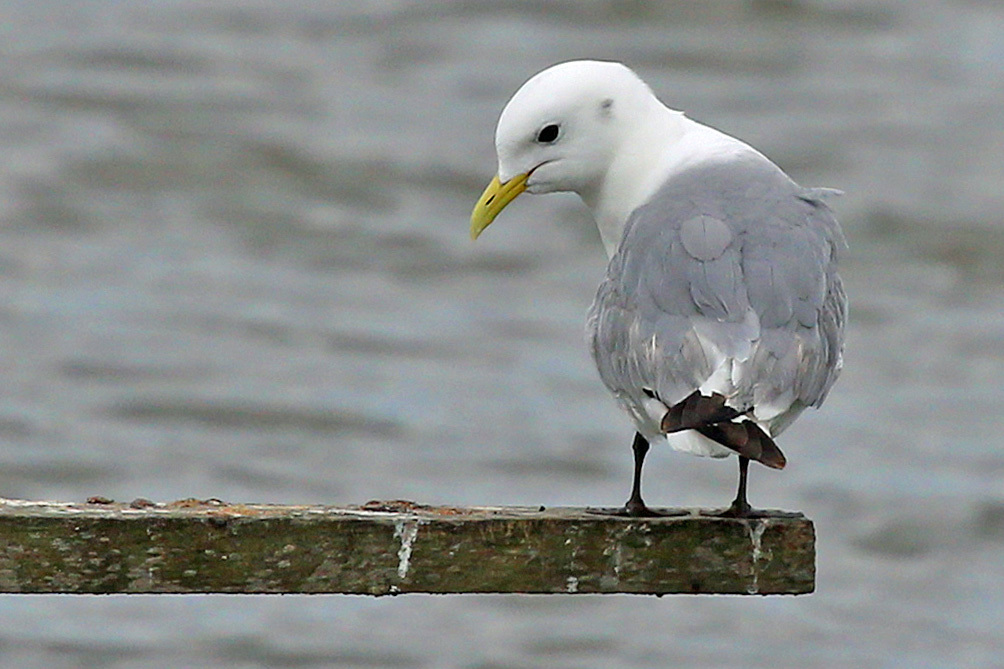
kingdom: Animalia
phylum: Chordata
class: Aves
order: Charadriiformes
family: Laridae
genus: Rissa
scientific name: Rissa tridactyla
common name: Black-legged kittiwake
